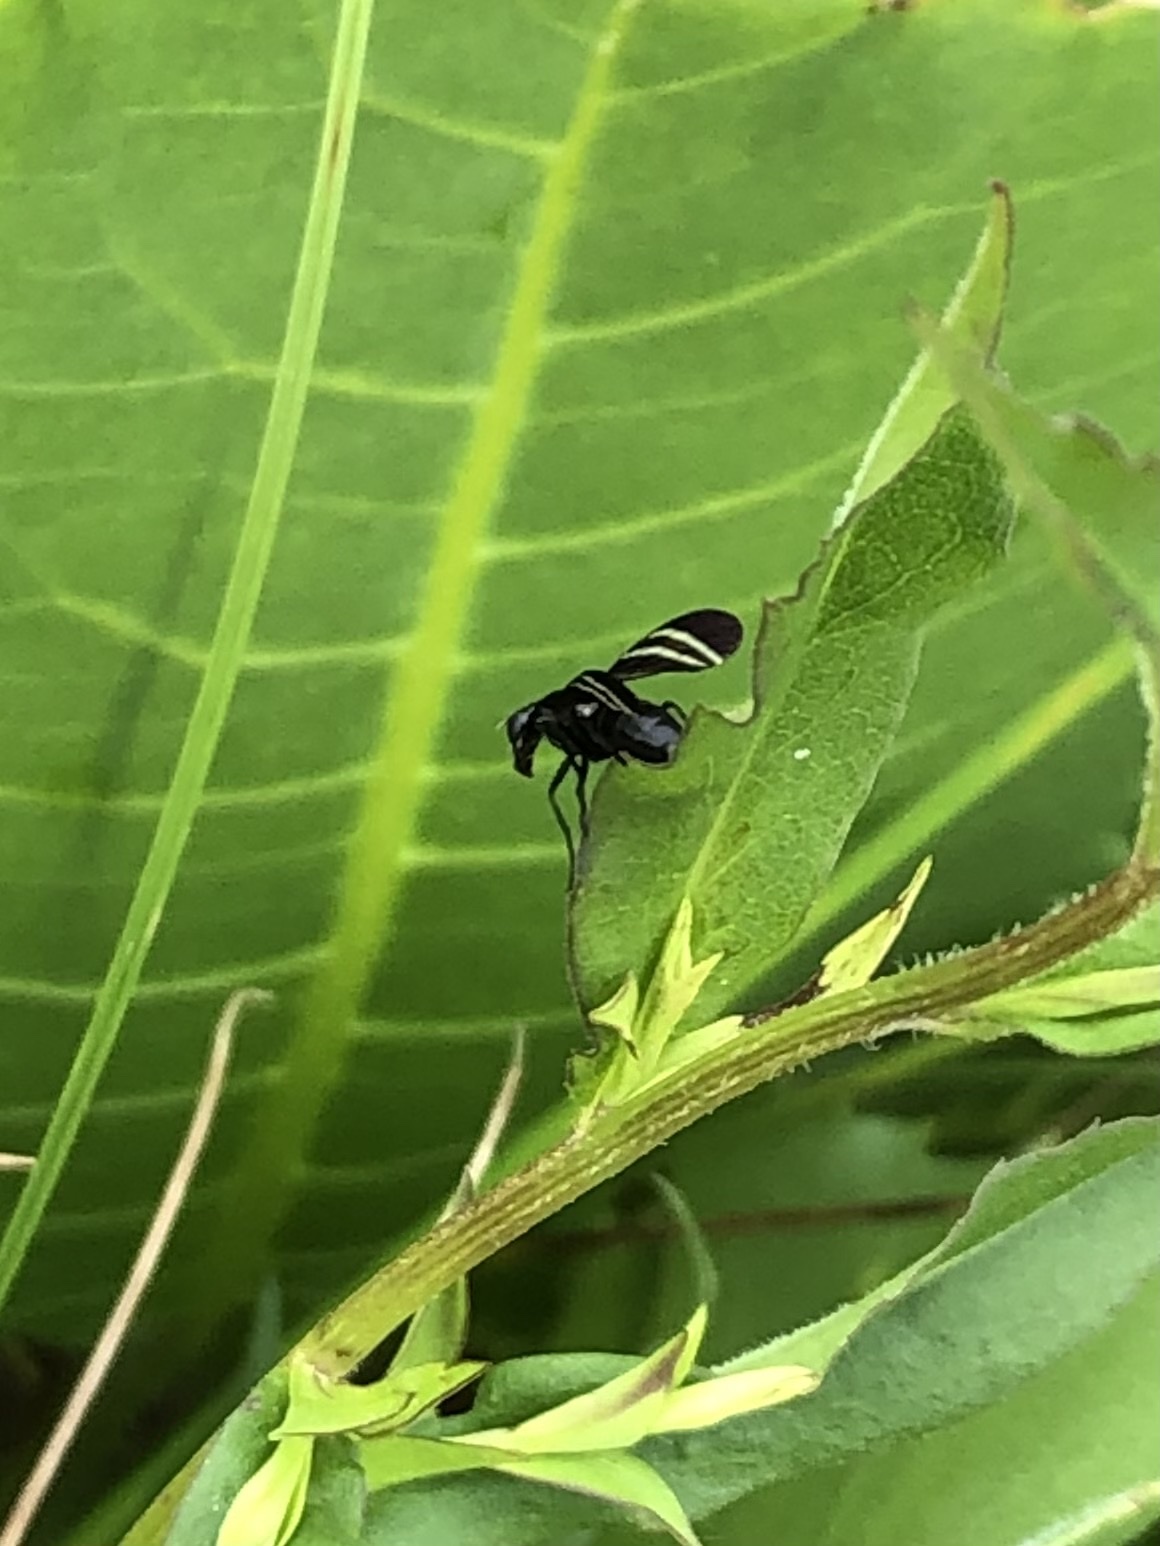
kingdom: Animalia
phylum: Arthropoda
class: Insecta
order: Diptera
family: Ulidiidae
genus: Tritoxa
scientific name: Tritoxa flexa
